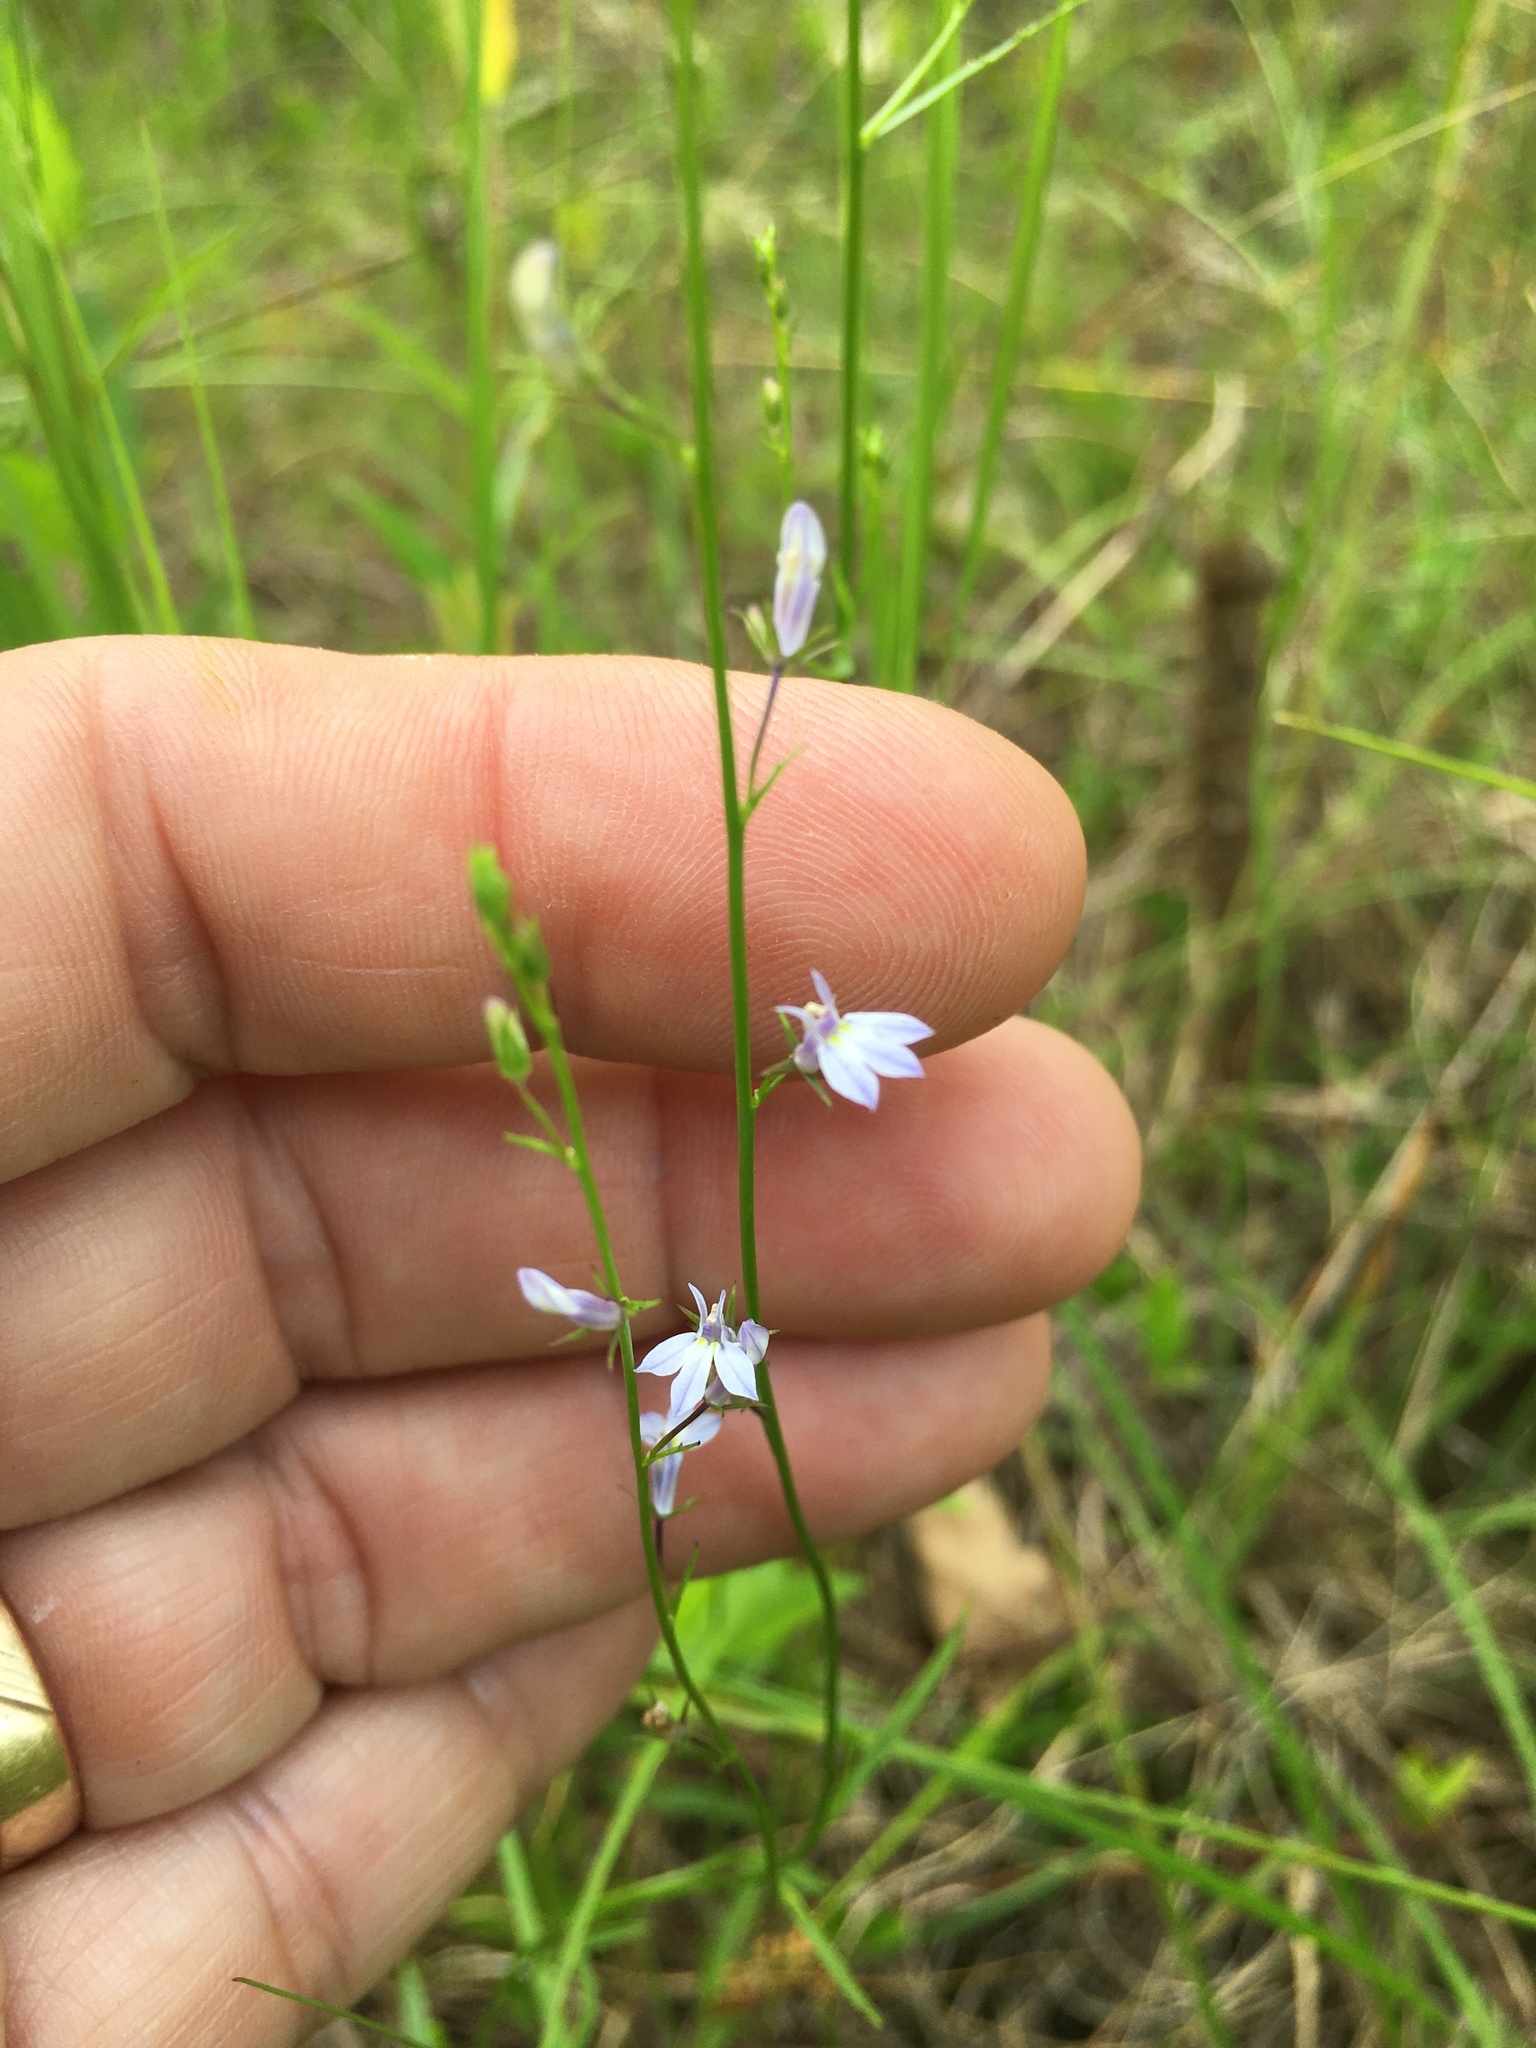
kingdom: Plantae
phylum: Tracheophyta
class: Magnoliopsida
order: Asterales
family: Campanulaceae
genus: Lobelia
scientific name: Lobelia nuttallii
